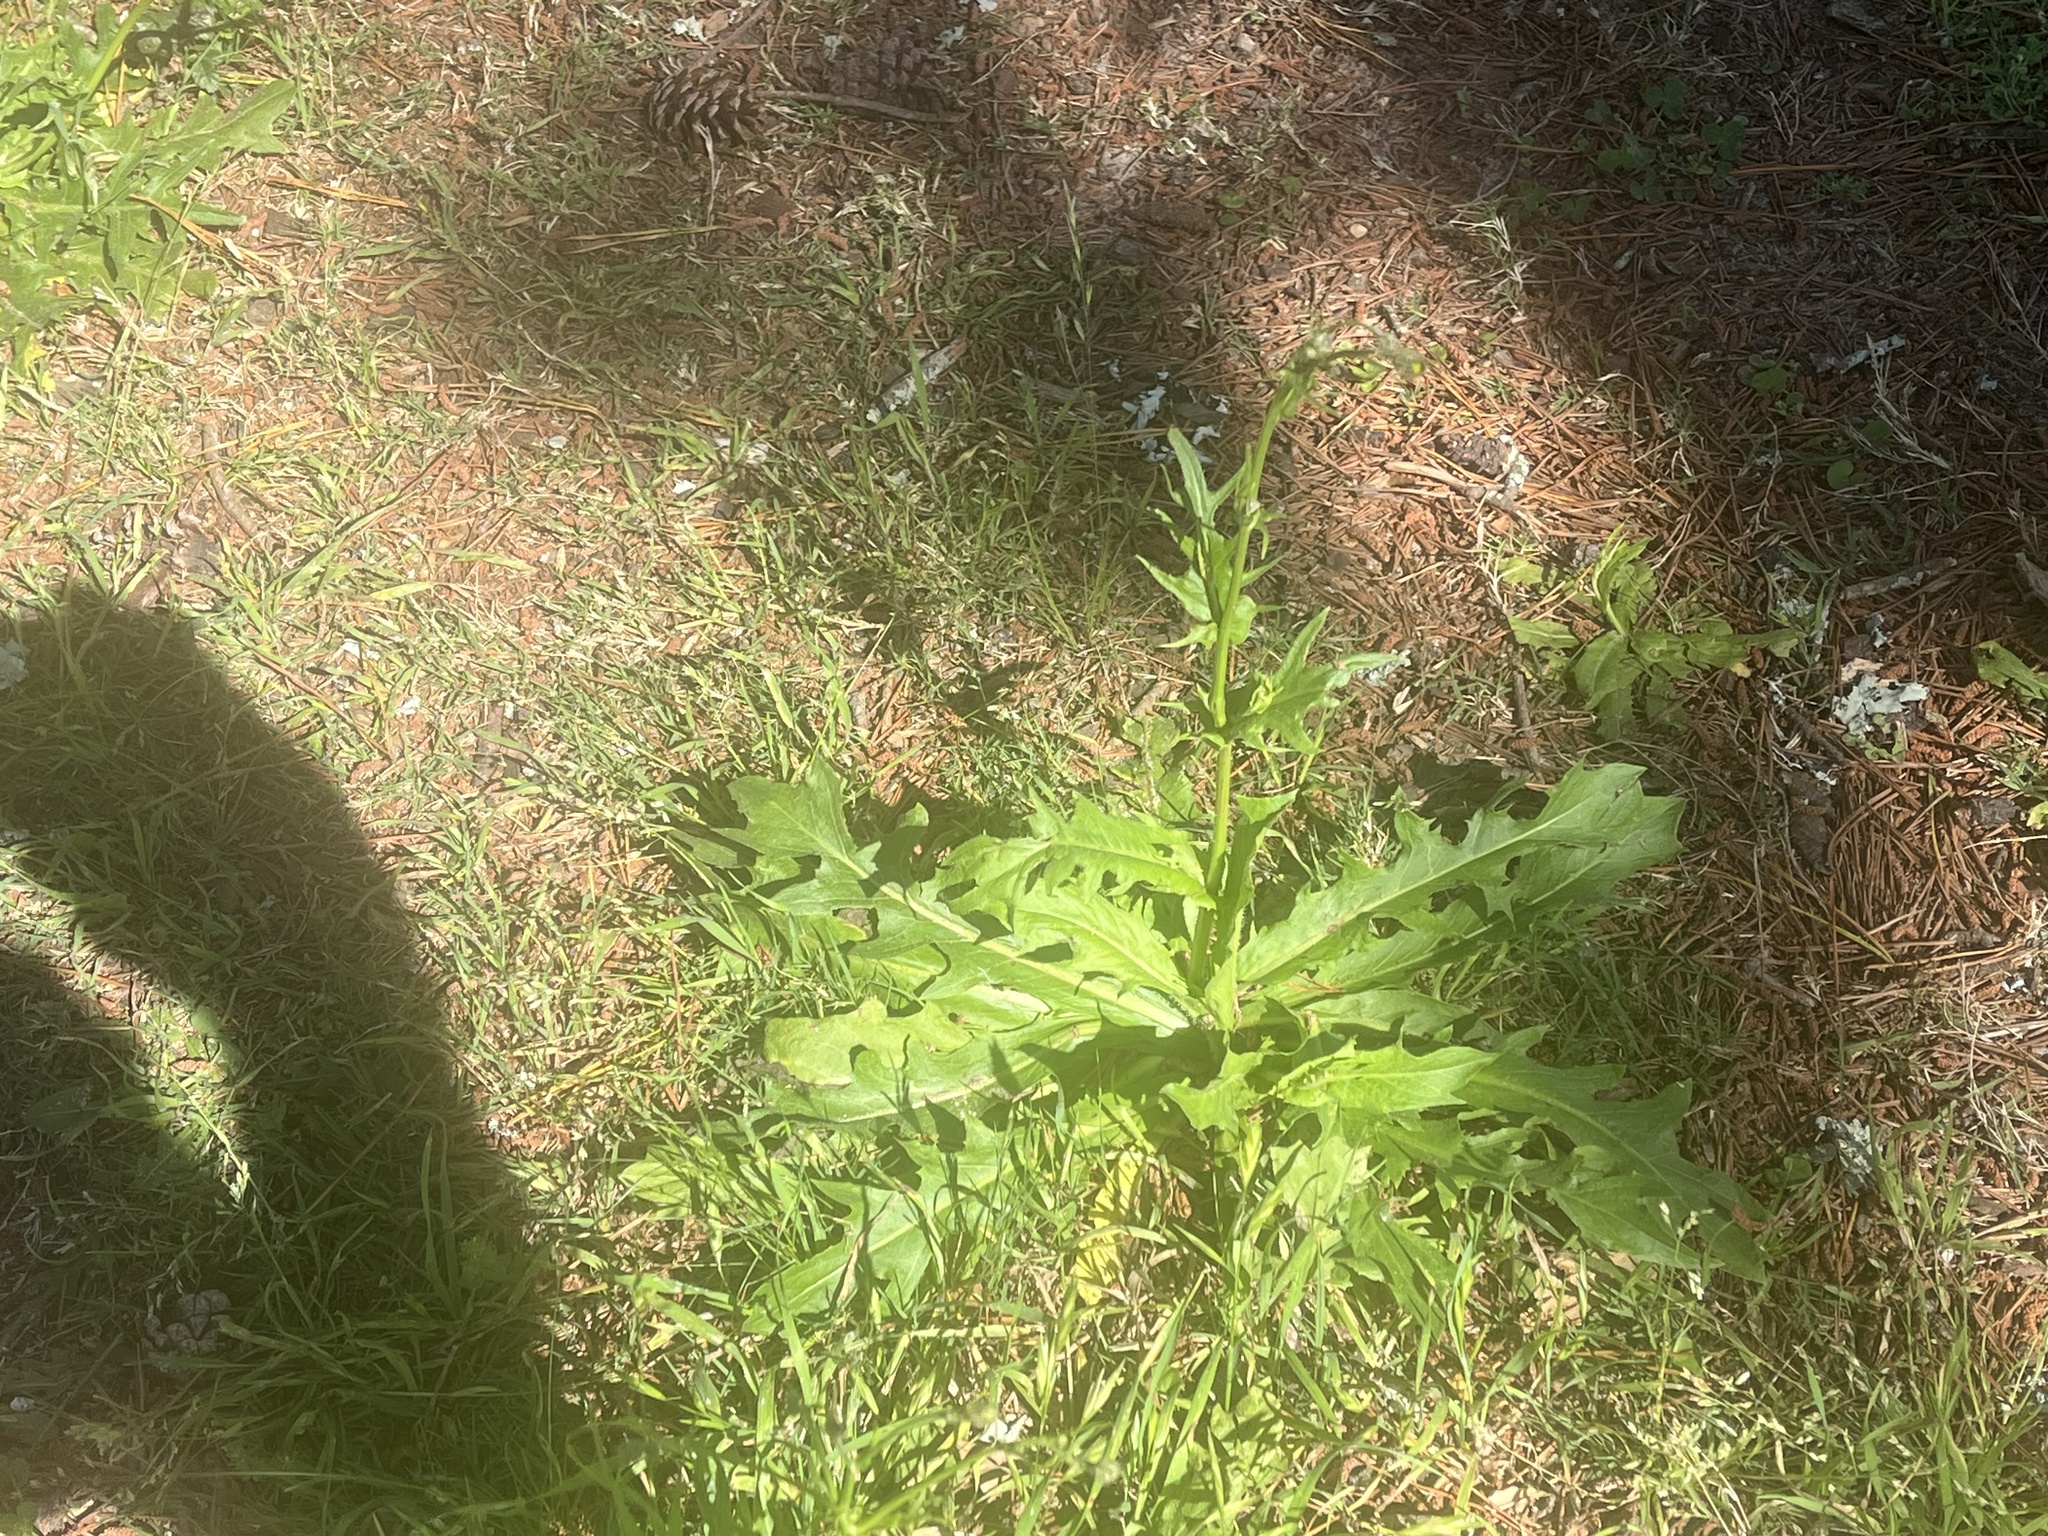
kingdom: Plantae
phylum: Tracheophyta
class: Magnoliopsida
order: Asterales
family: Asteraceae
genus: Hypochaeris
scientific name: Hypochaeris chillensis
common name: Brazilian cat's ear
